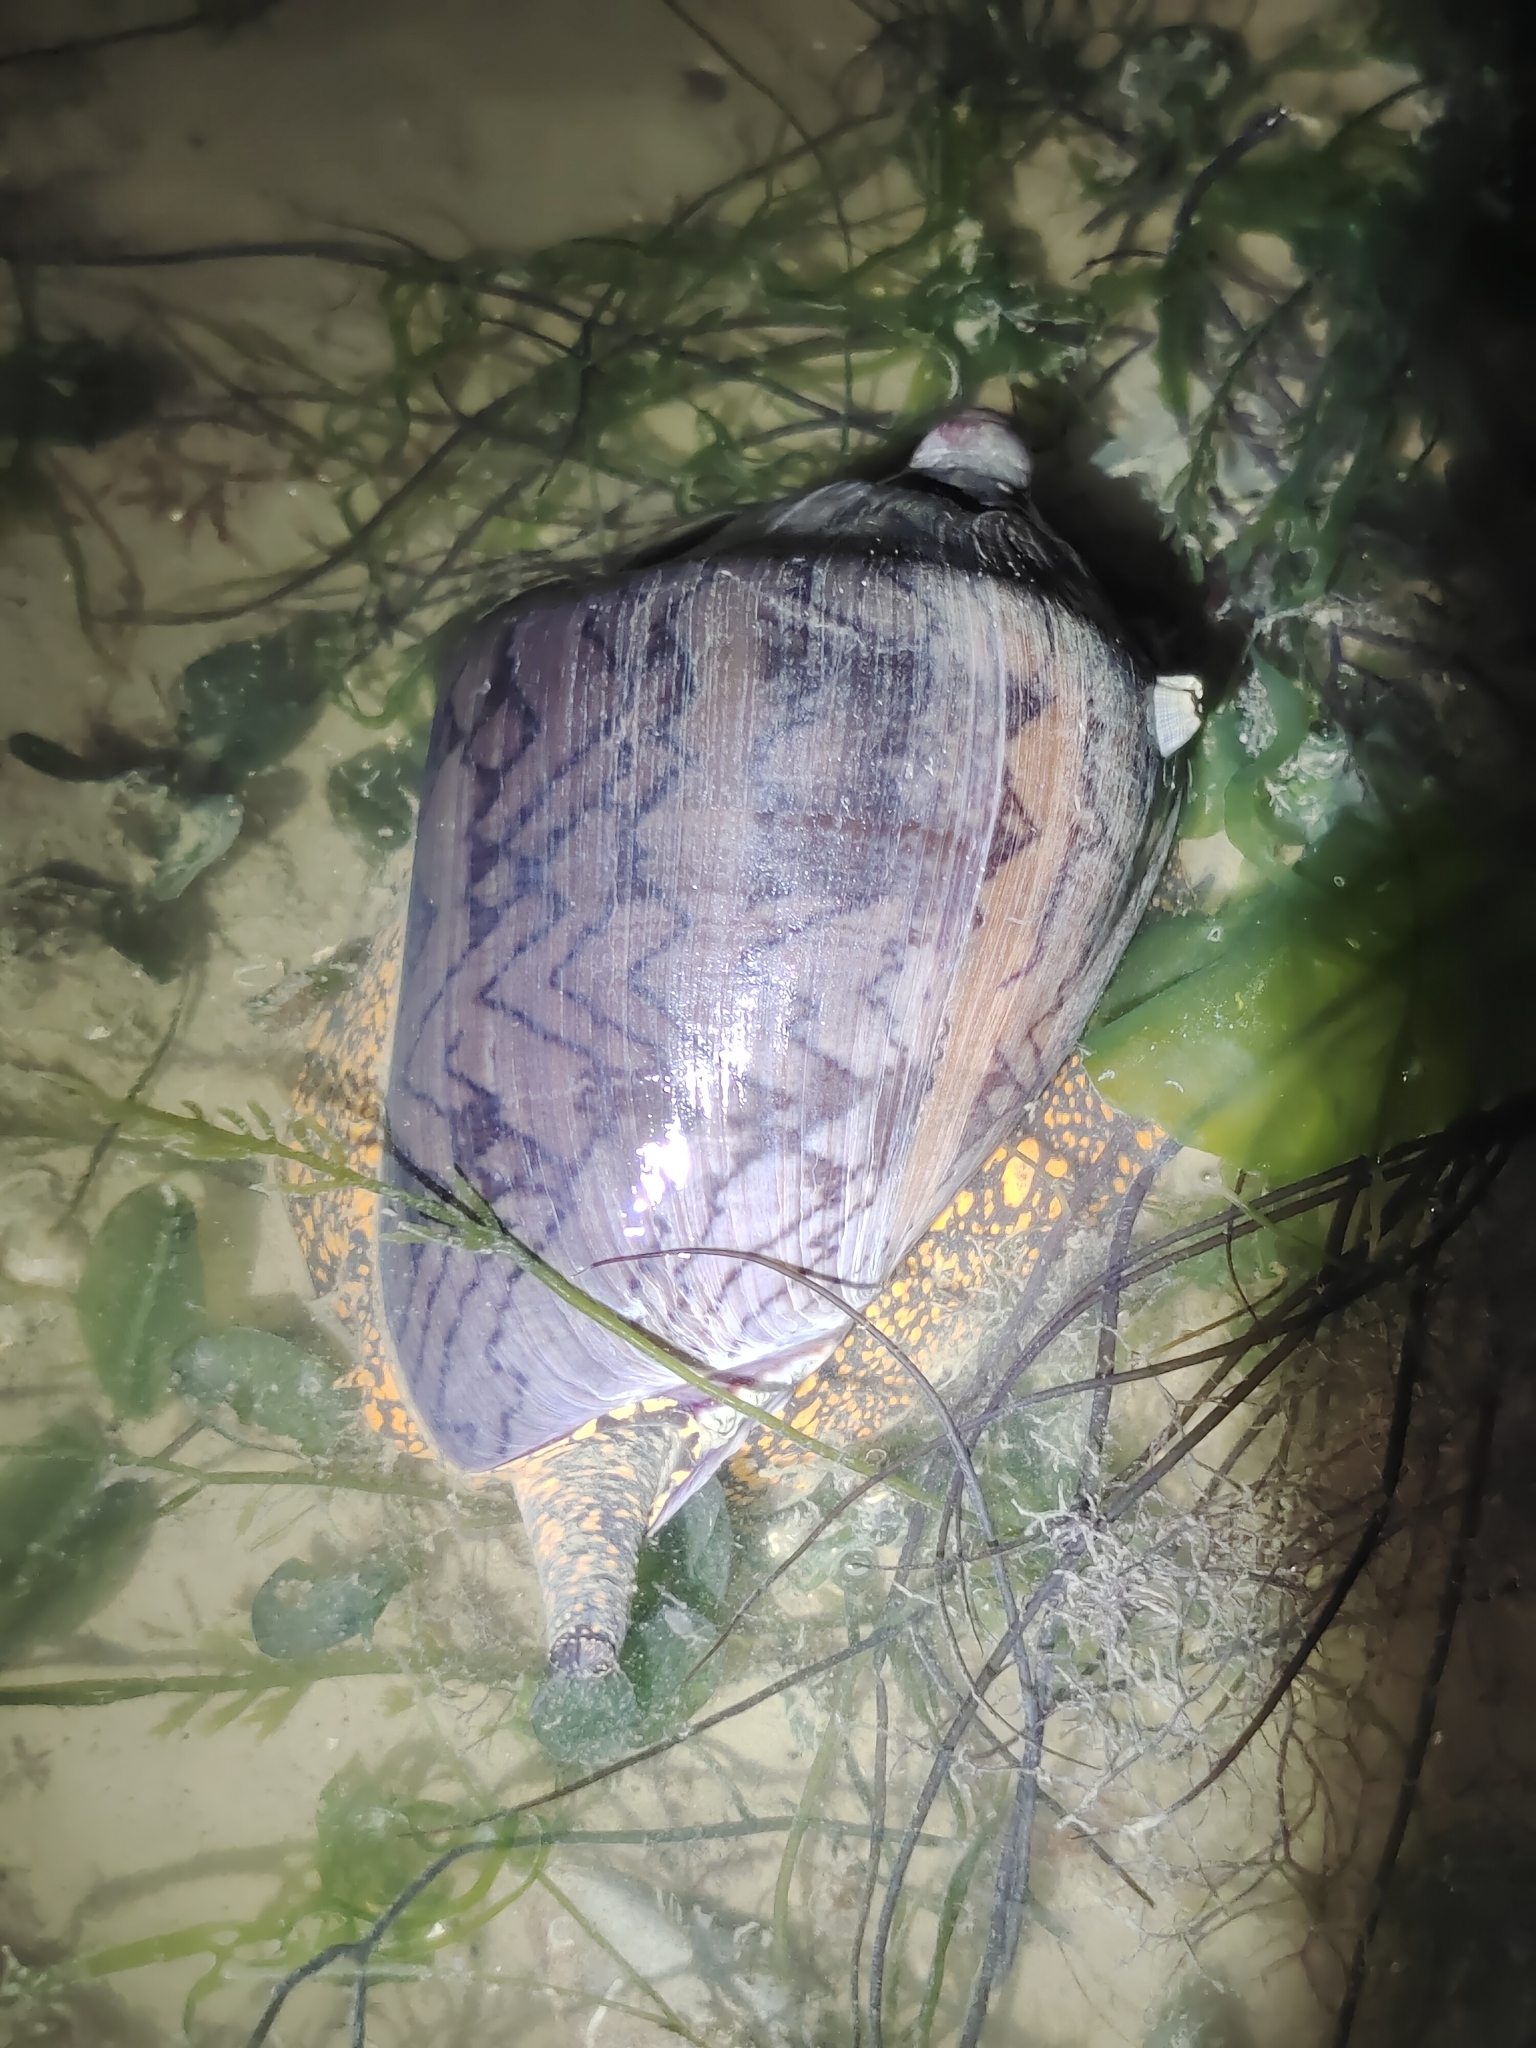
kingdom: Animalia
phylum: Mollusca
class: Gastropoda
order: Neogastropoda
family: Volutidae
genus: Cymbiola
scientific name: Cymbiola nobilis
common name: Noble volute
